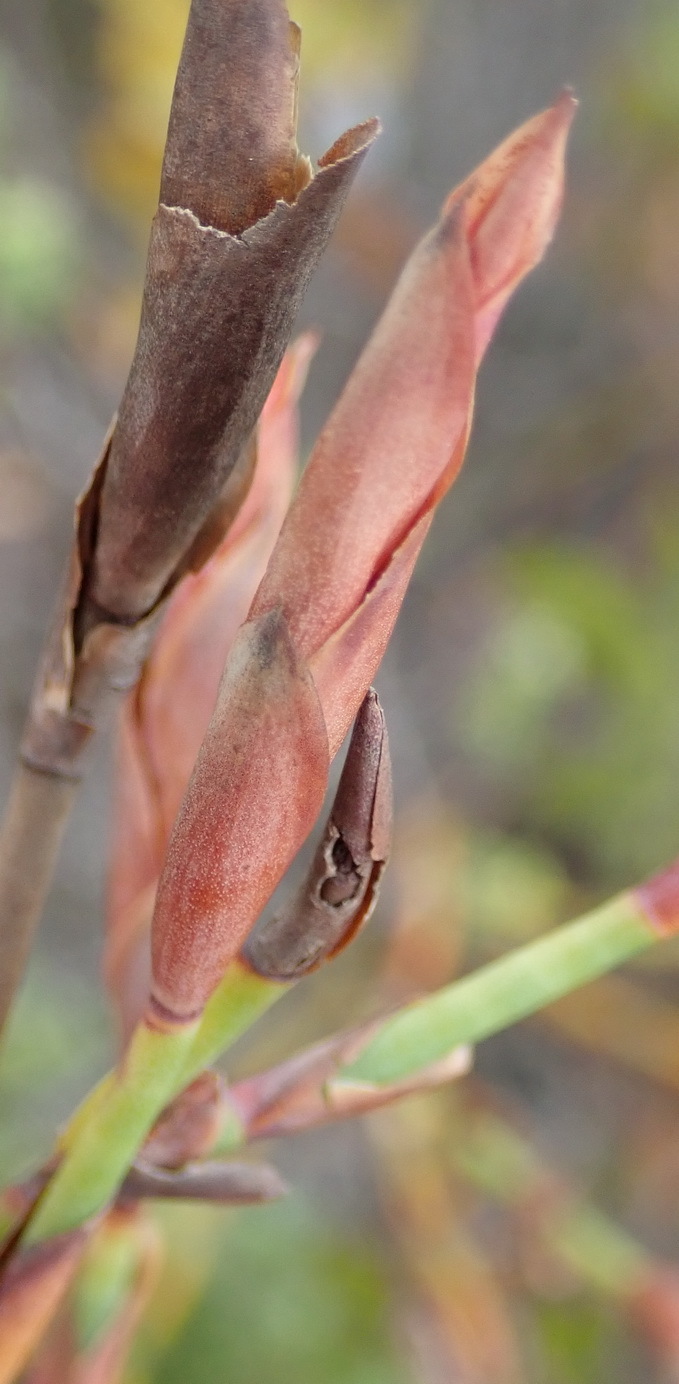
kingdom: Plantae
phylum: Tracheophyta
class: Liliopsida
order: Poales
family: Restionaceae
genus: Elegia
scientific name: Elegia muirii
